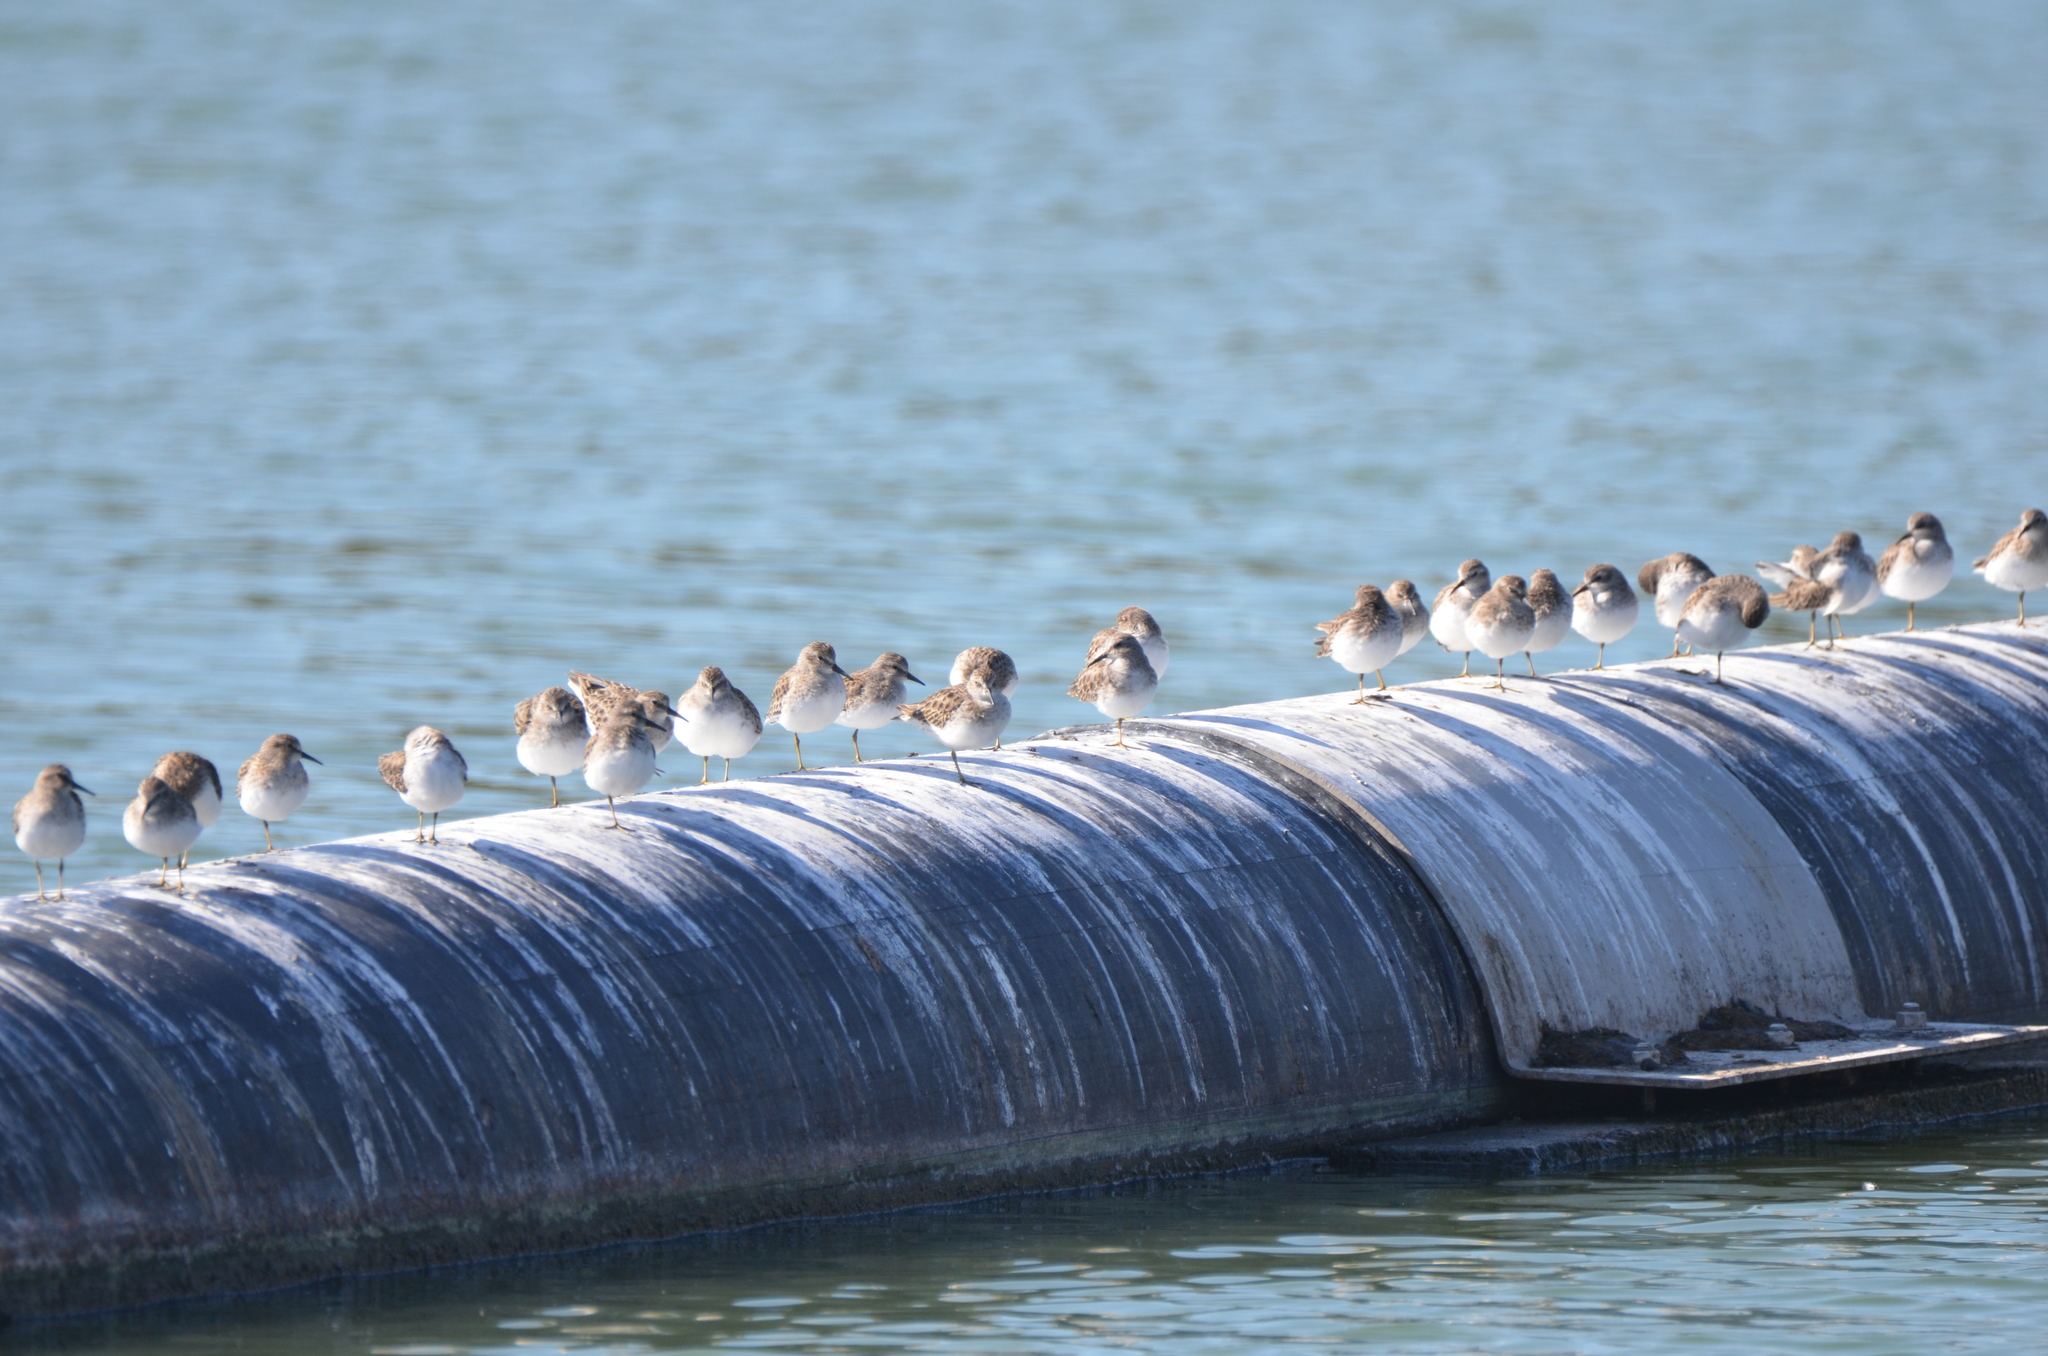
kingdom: Animalia
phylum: Chordata
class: Aves
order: Charadriiformes
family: Scolopacidae
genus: Calidris
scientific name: Calidris minutilla
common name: Least sandpiper
